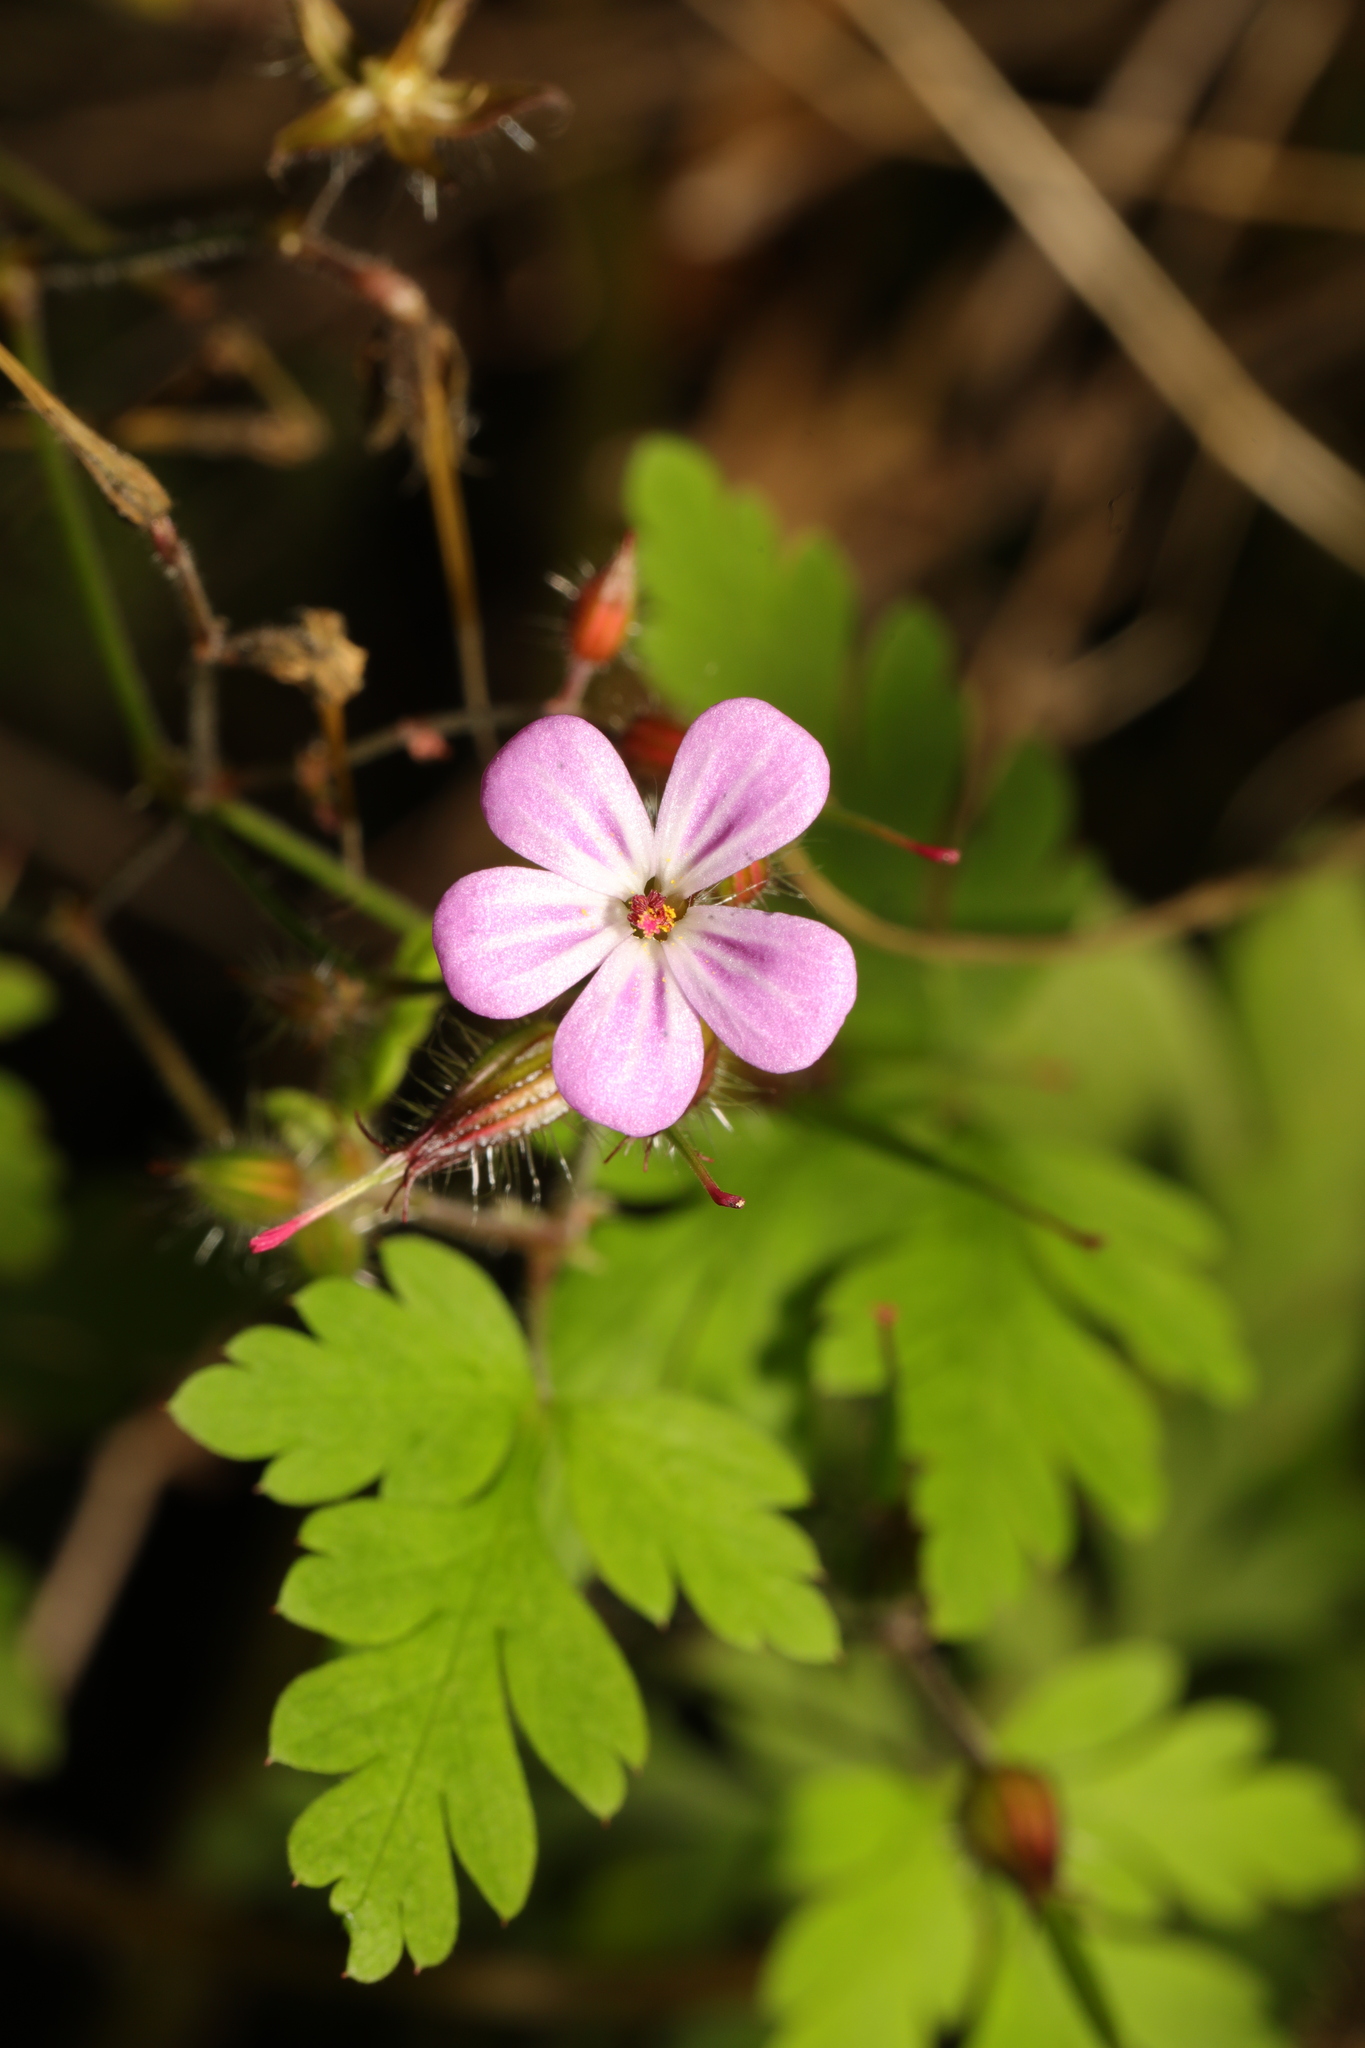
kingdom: Plantae
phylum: Tracheophyta
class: Magnoliopsida
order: Geraniales
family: Geraniaceae
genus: Geranium
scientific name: Geranium robertianum
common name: Herb-robert
